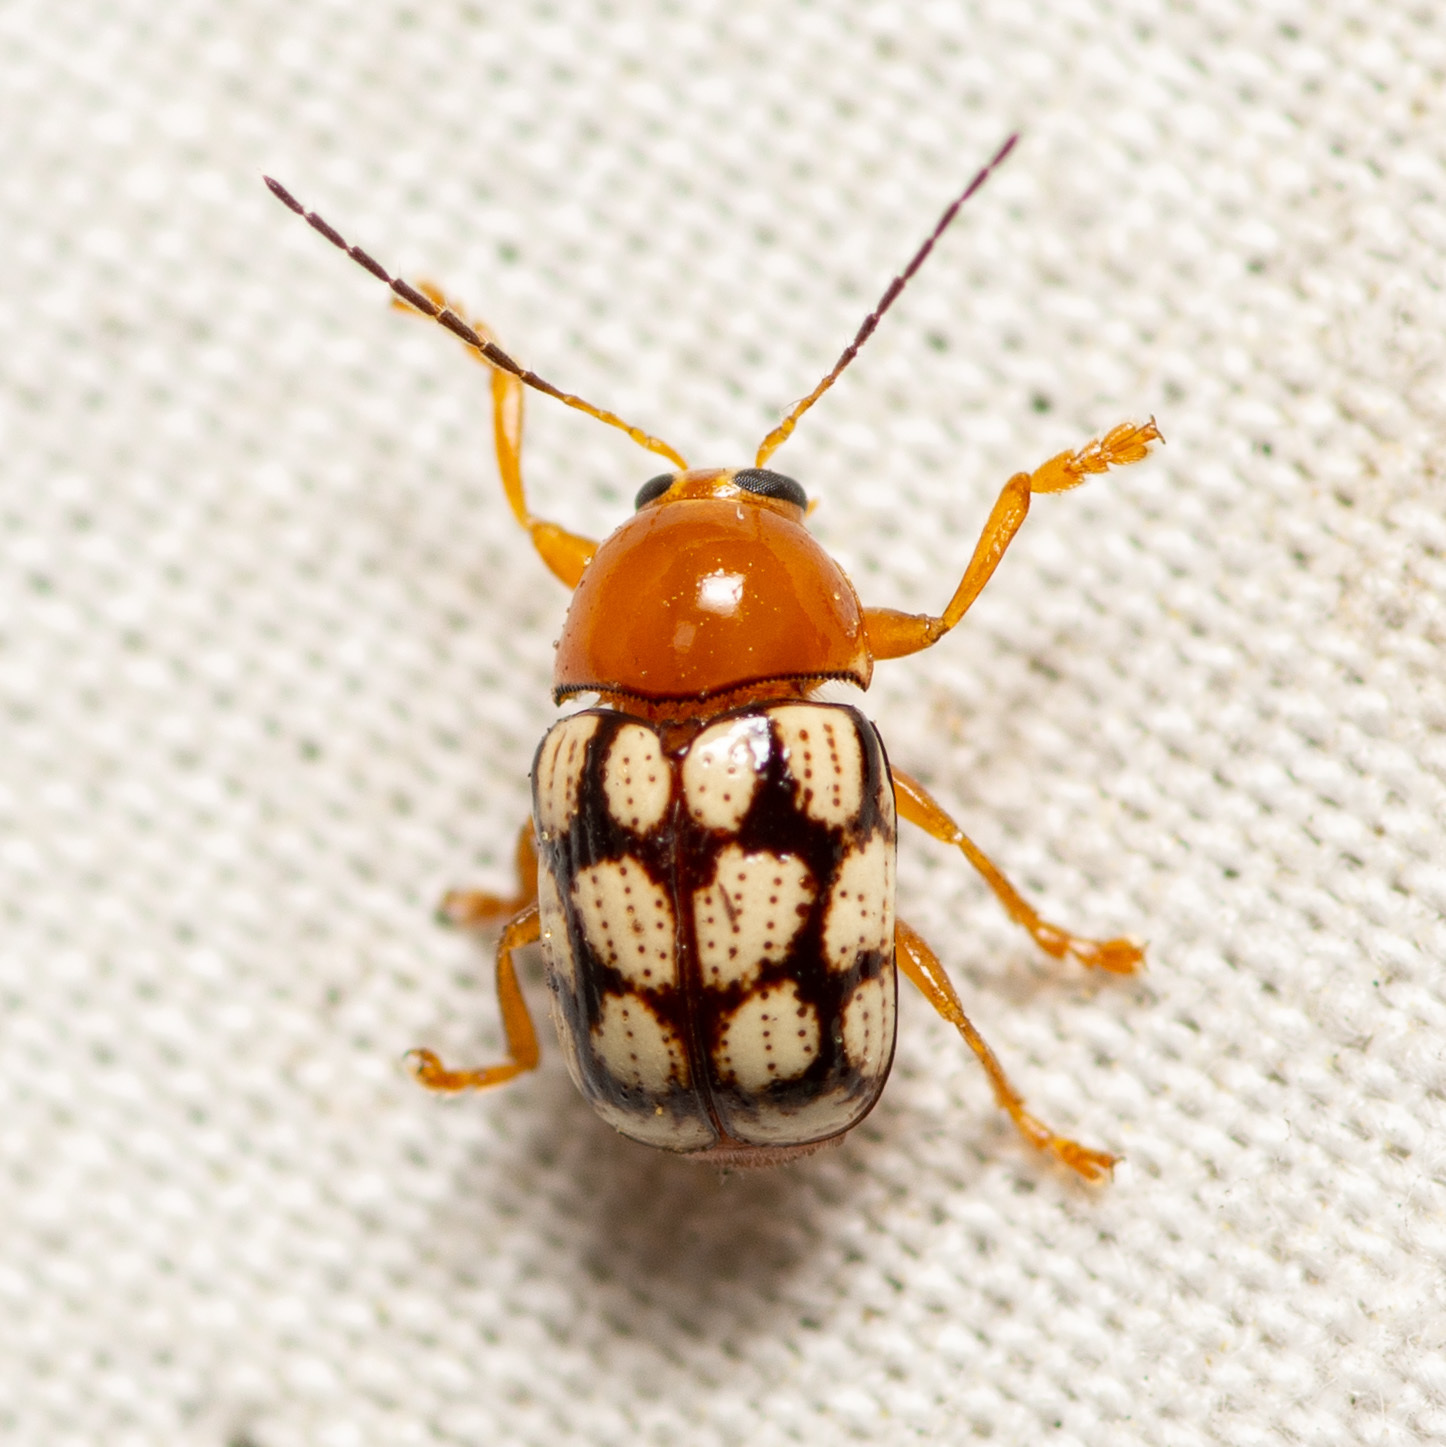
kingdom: Animalia
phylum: Arthropoda
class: Insecta
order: Coleoptera
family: Chrysomelidae
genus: Cryptocephalus
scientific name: Cryptocephalus guttulatus
